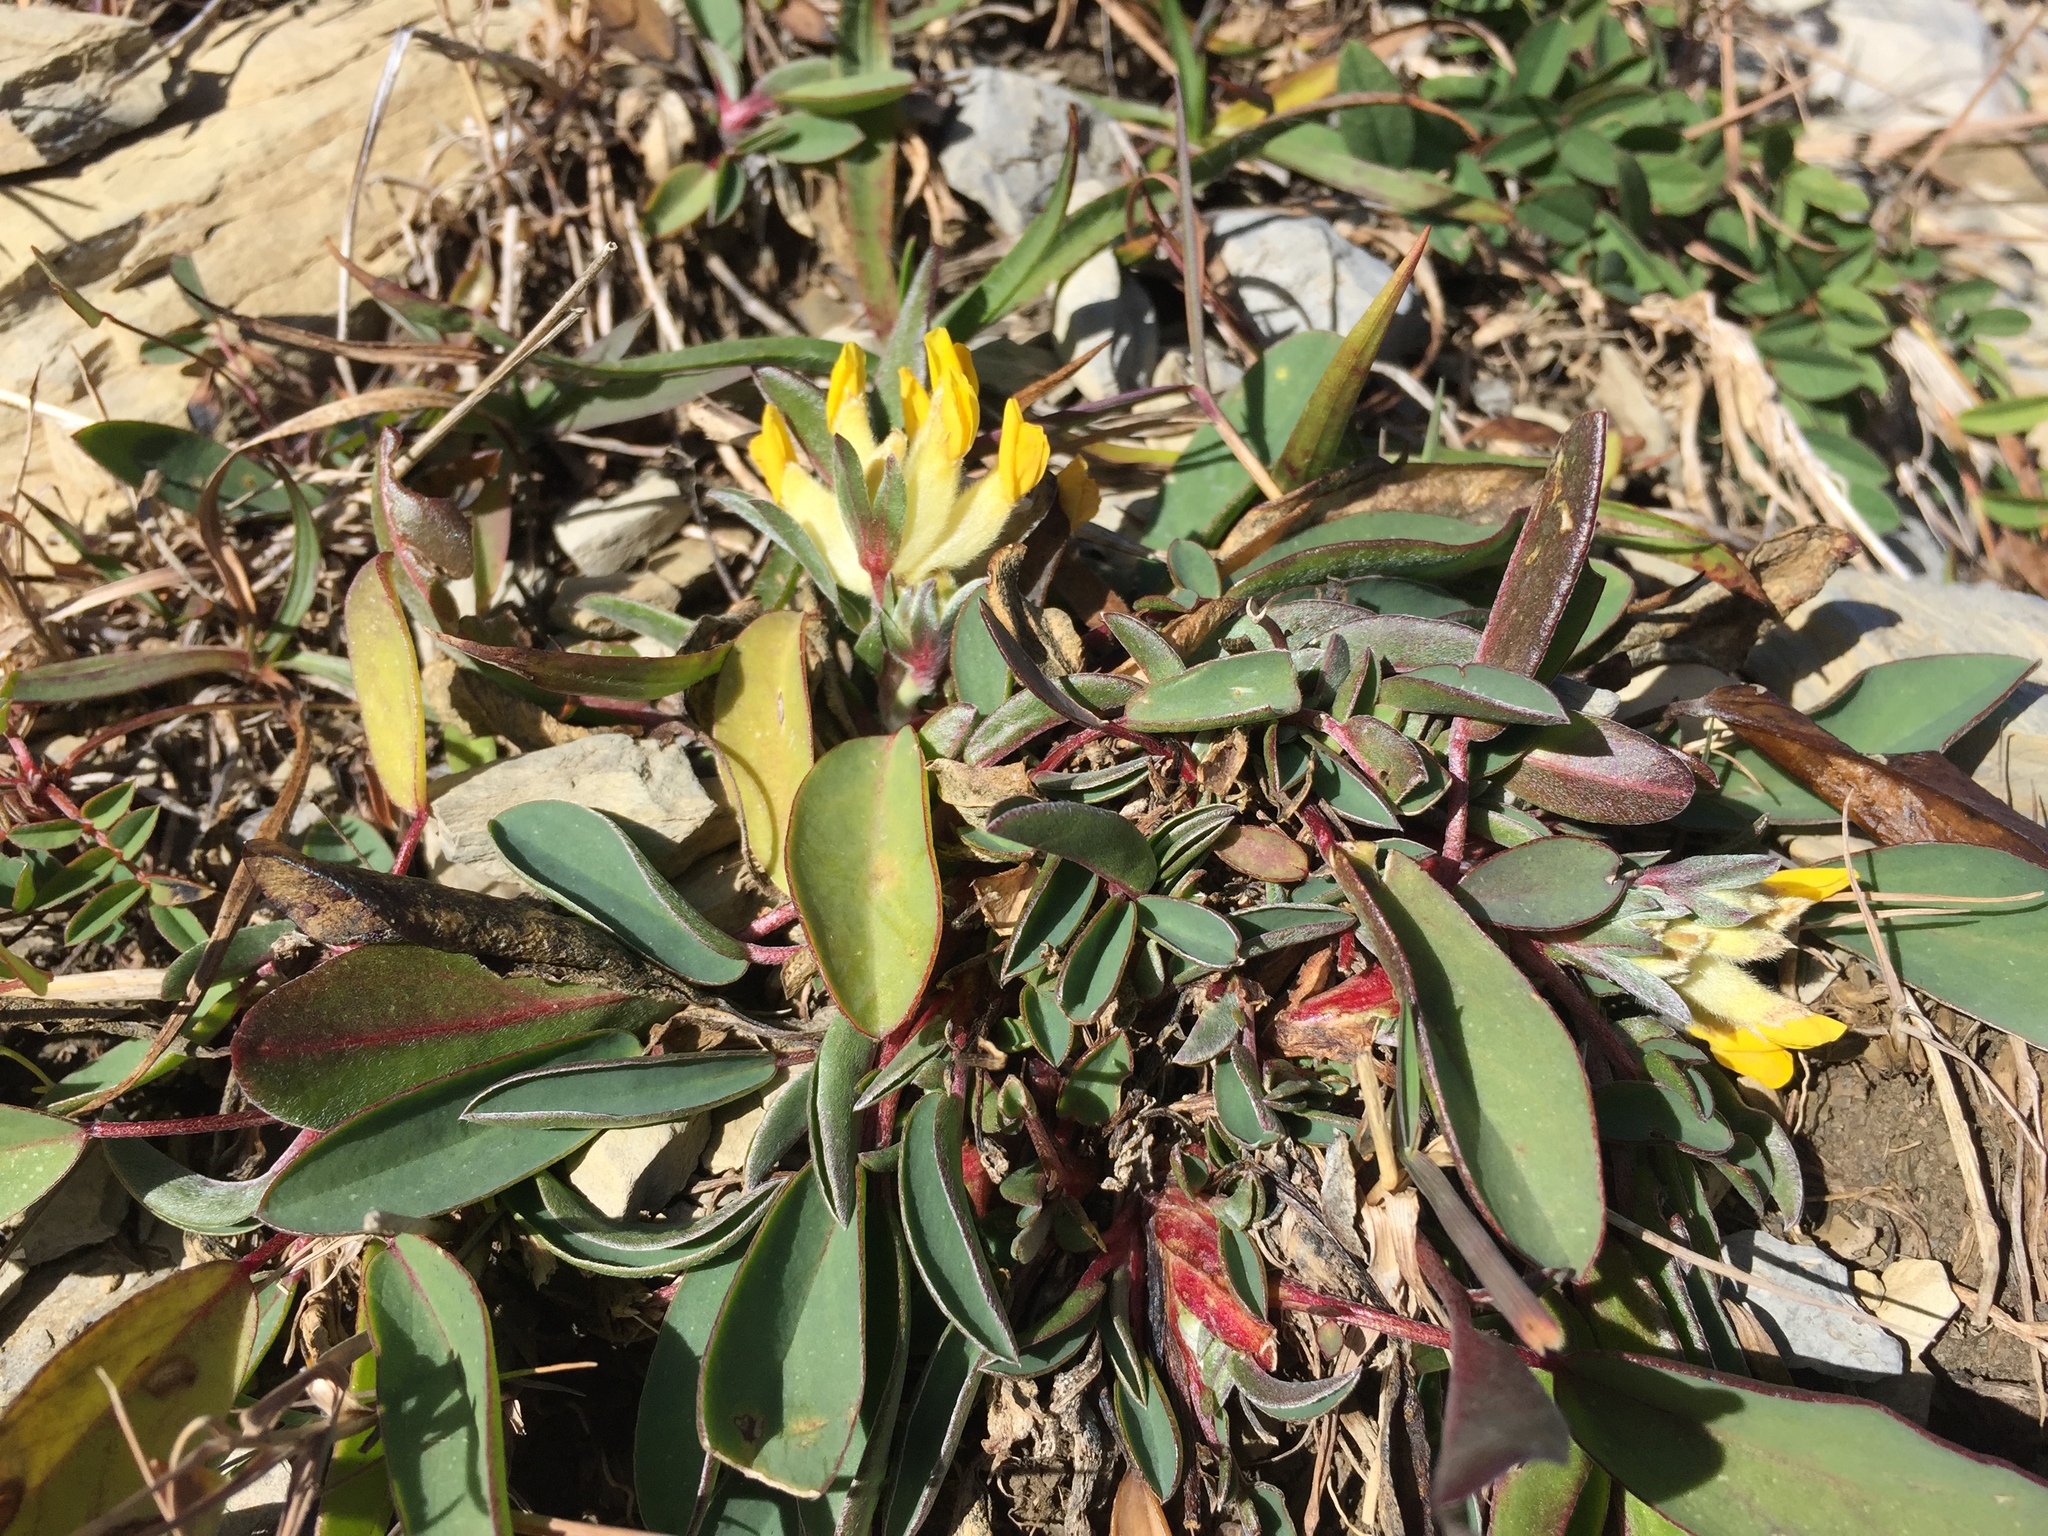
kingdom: Plantae
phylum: Tracheophyta
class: Magnoliopsida
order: Fabales
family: Fabaceae
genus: Anthyllis
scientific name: Anthyllis vulneraria
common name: Kidney vetch
